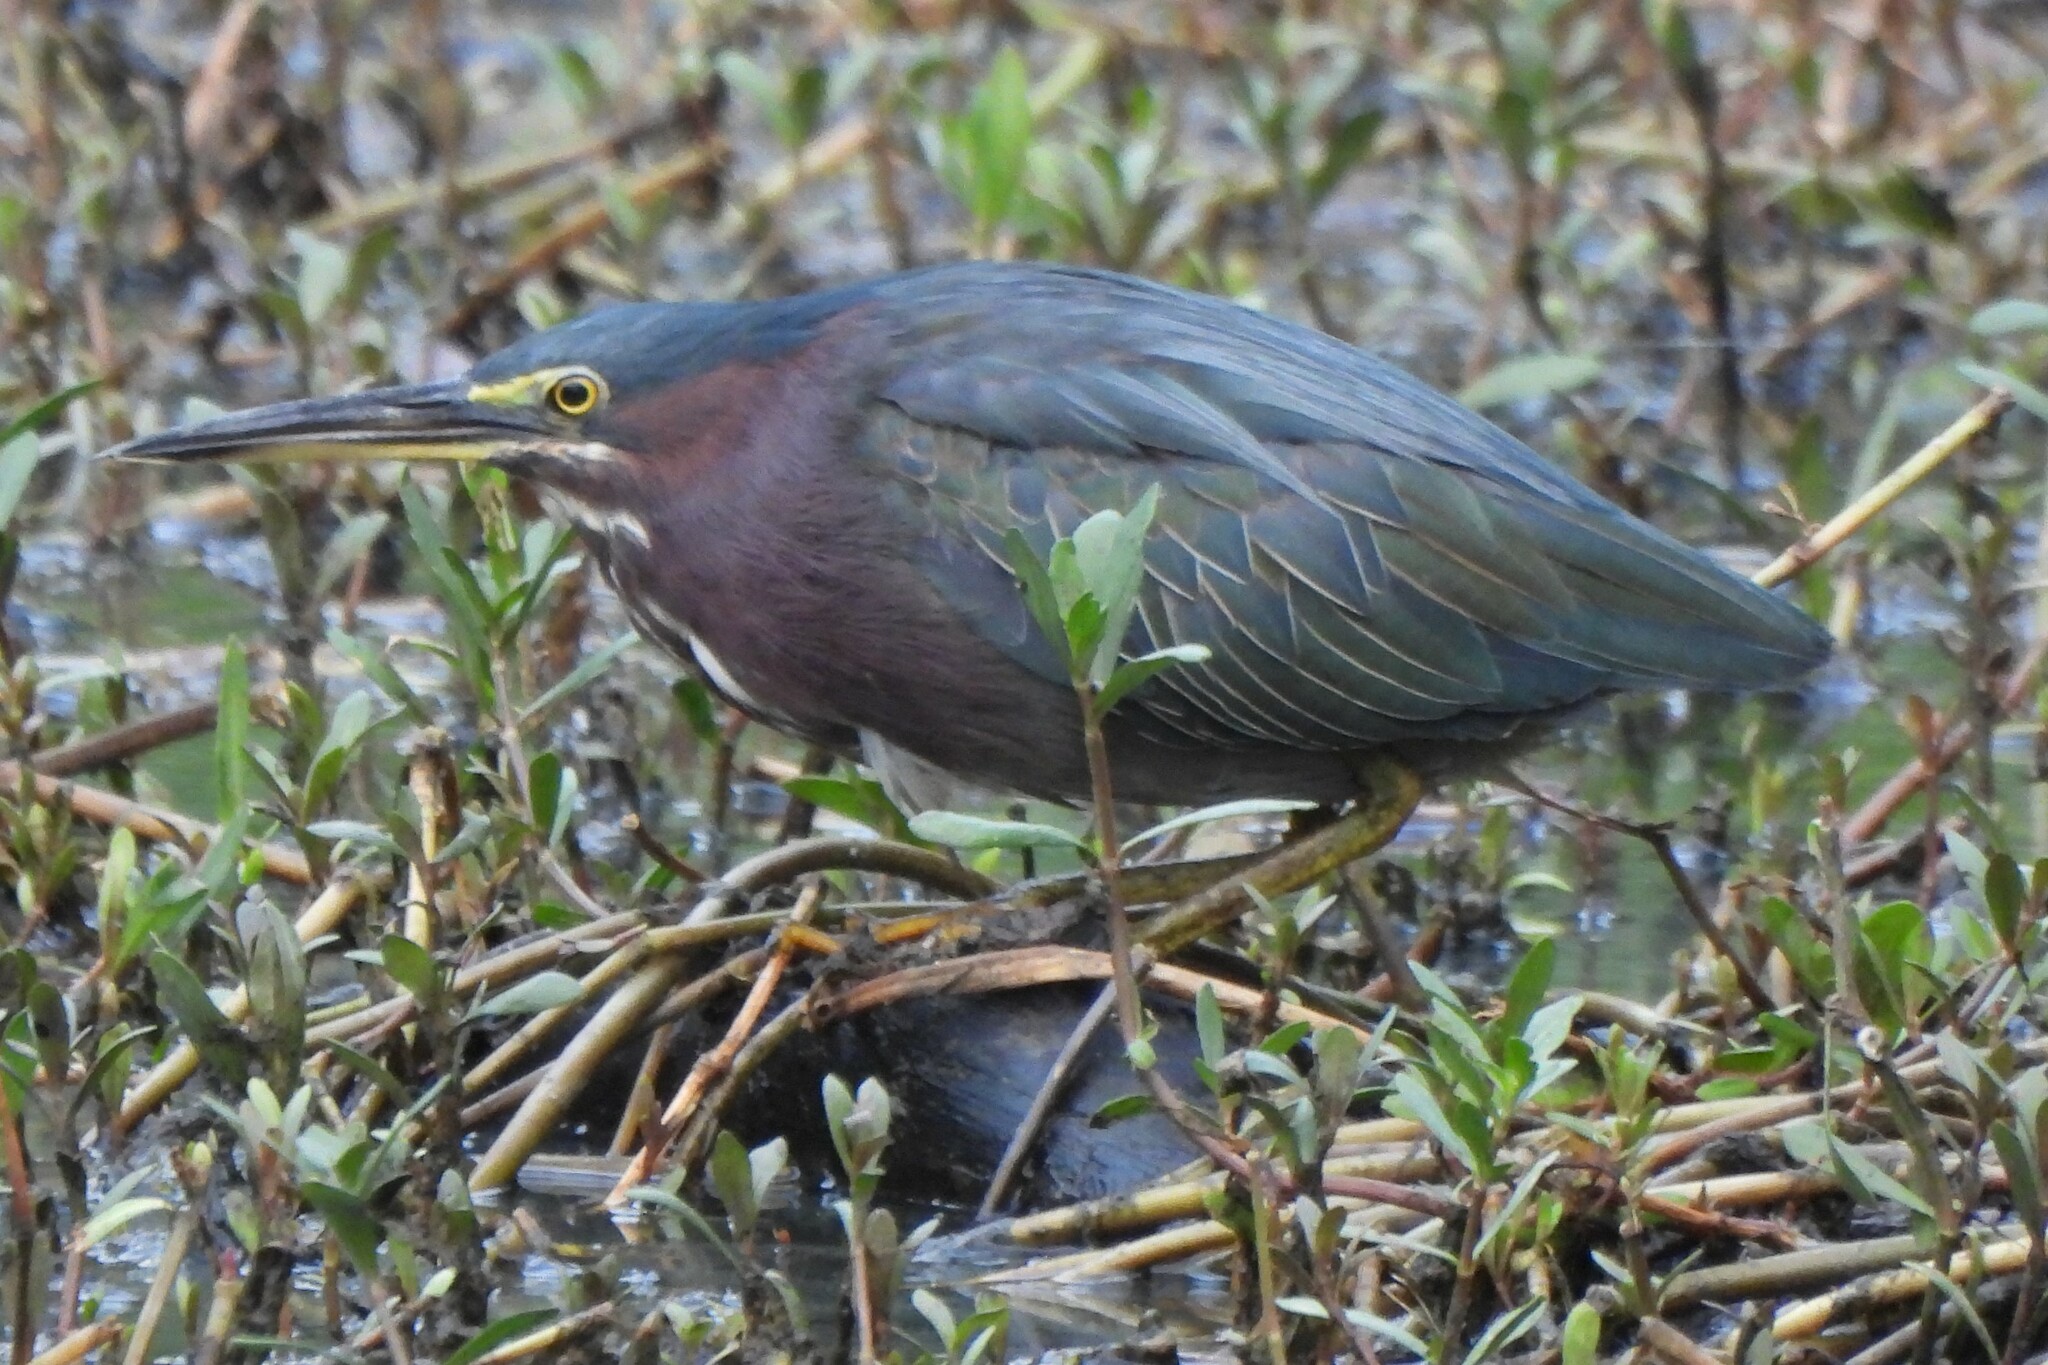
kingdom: Animalia
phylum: Chordata
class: Aves
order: Pelecaniformes
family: Ardeidae
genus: Butorides
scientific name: Butorides virescens
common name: Green heron
